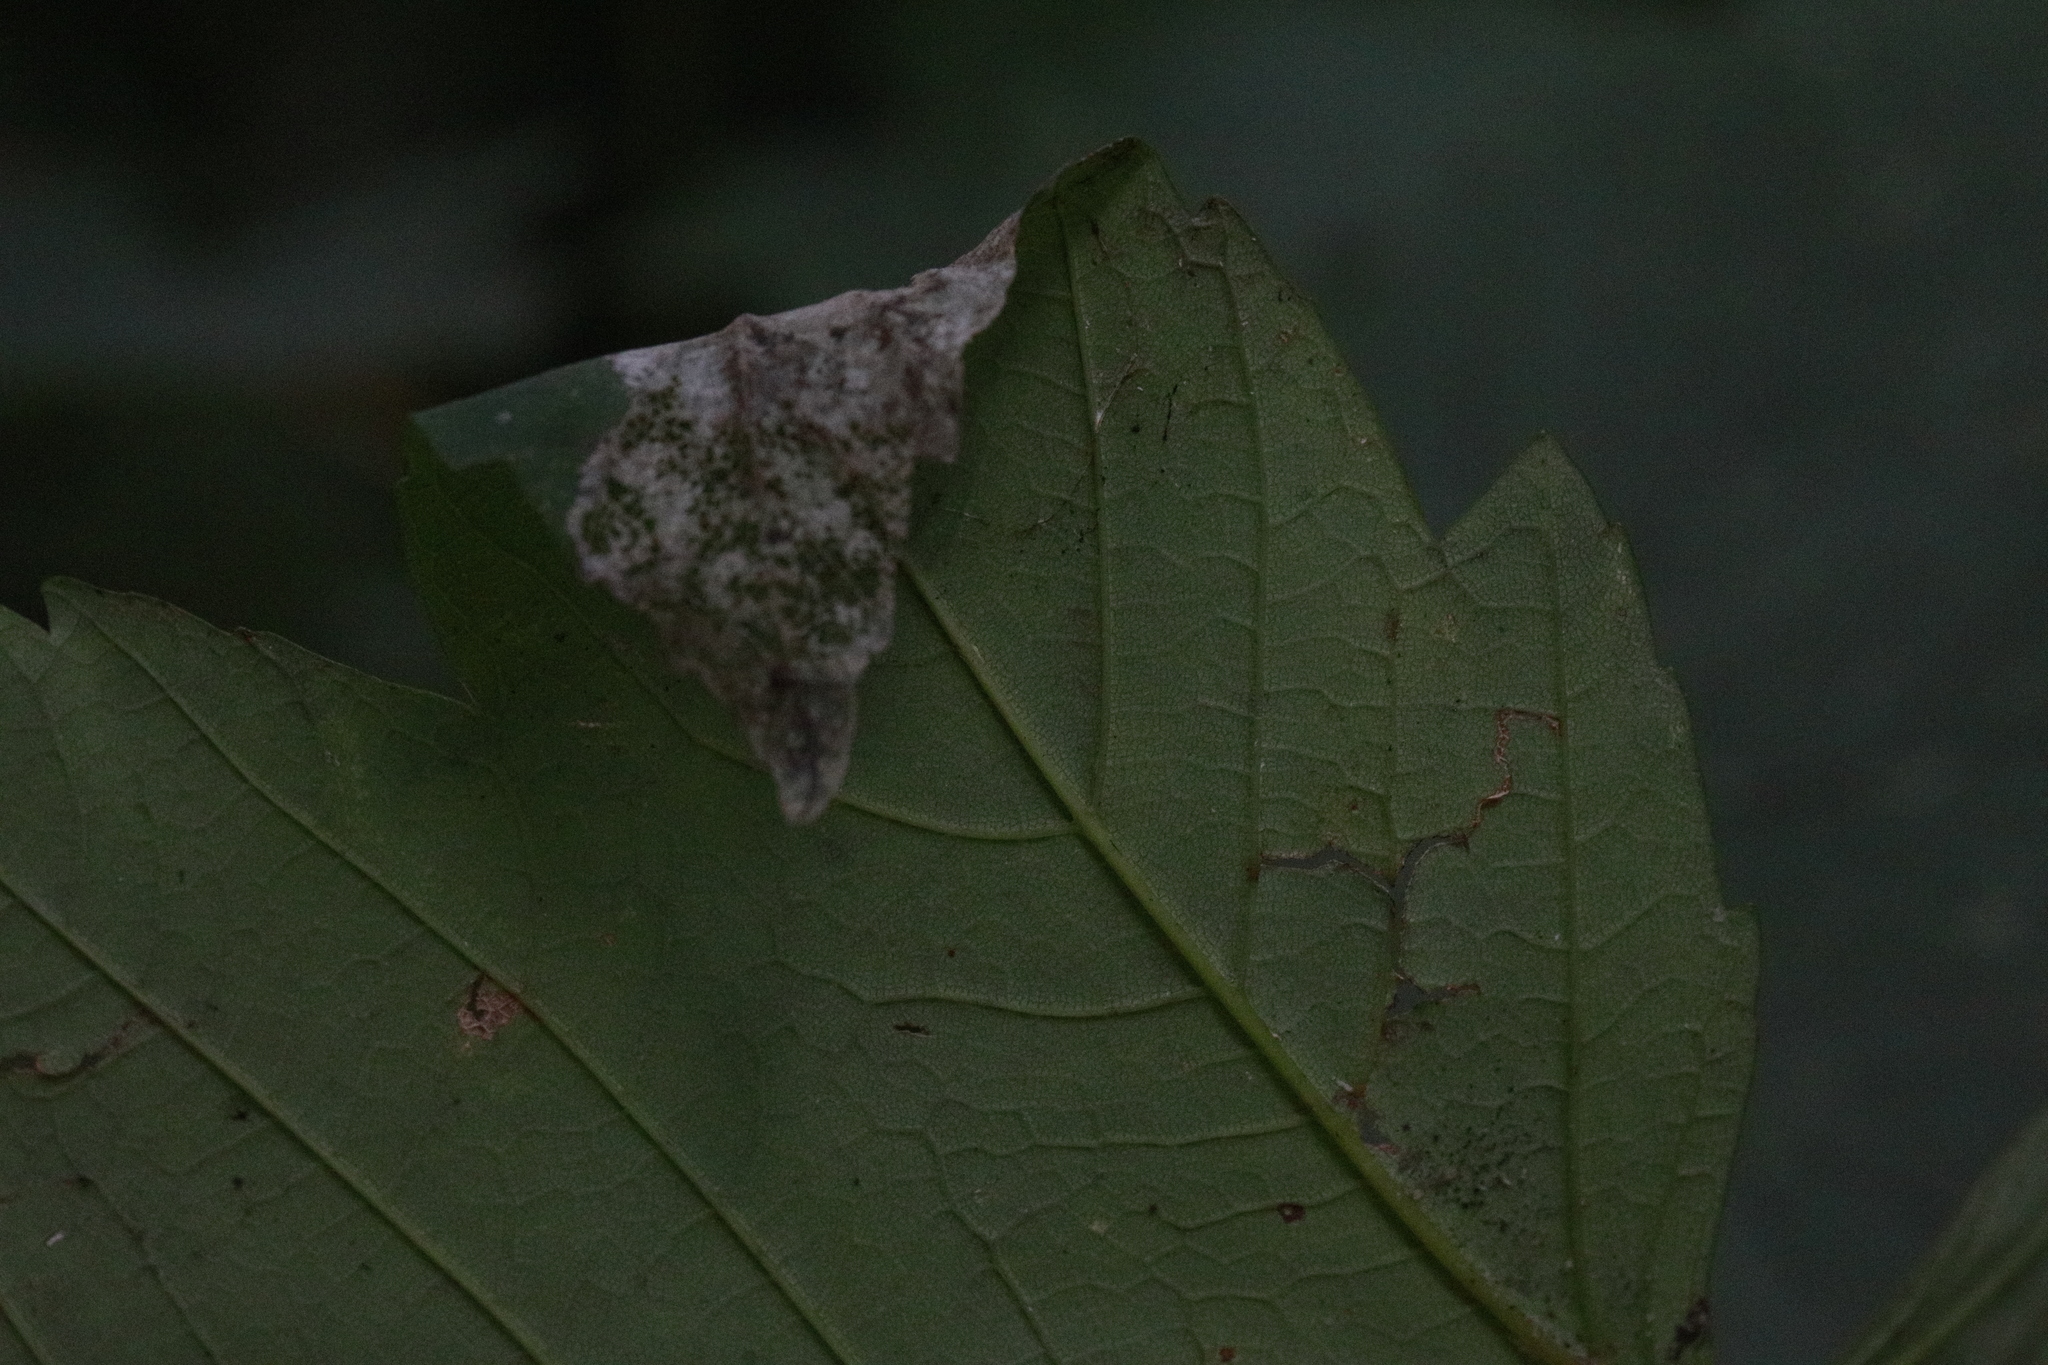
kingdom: Animalia
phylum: Arthropoda
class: Insecta
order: Lepidoptera
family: Gracillariidae
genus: Caloptilia
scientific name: Caloptilia rufipennella
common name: Small red slender
